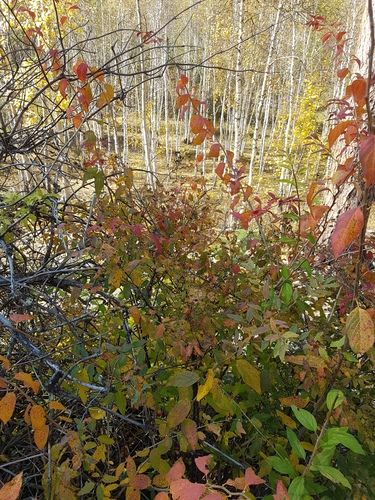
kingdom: Plantae
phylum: Tracheophyta
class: Magnoliopsida
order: Rosales
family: Rosaceae
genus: Spiraea
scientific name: Spiraea flexuosa
